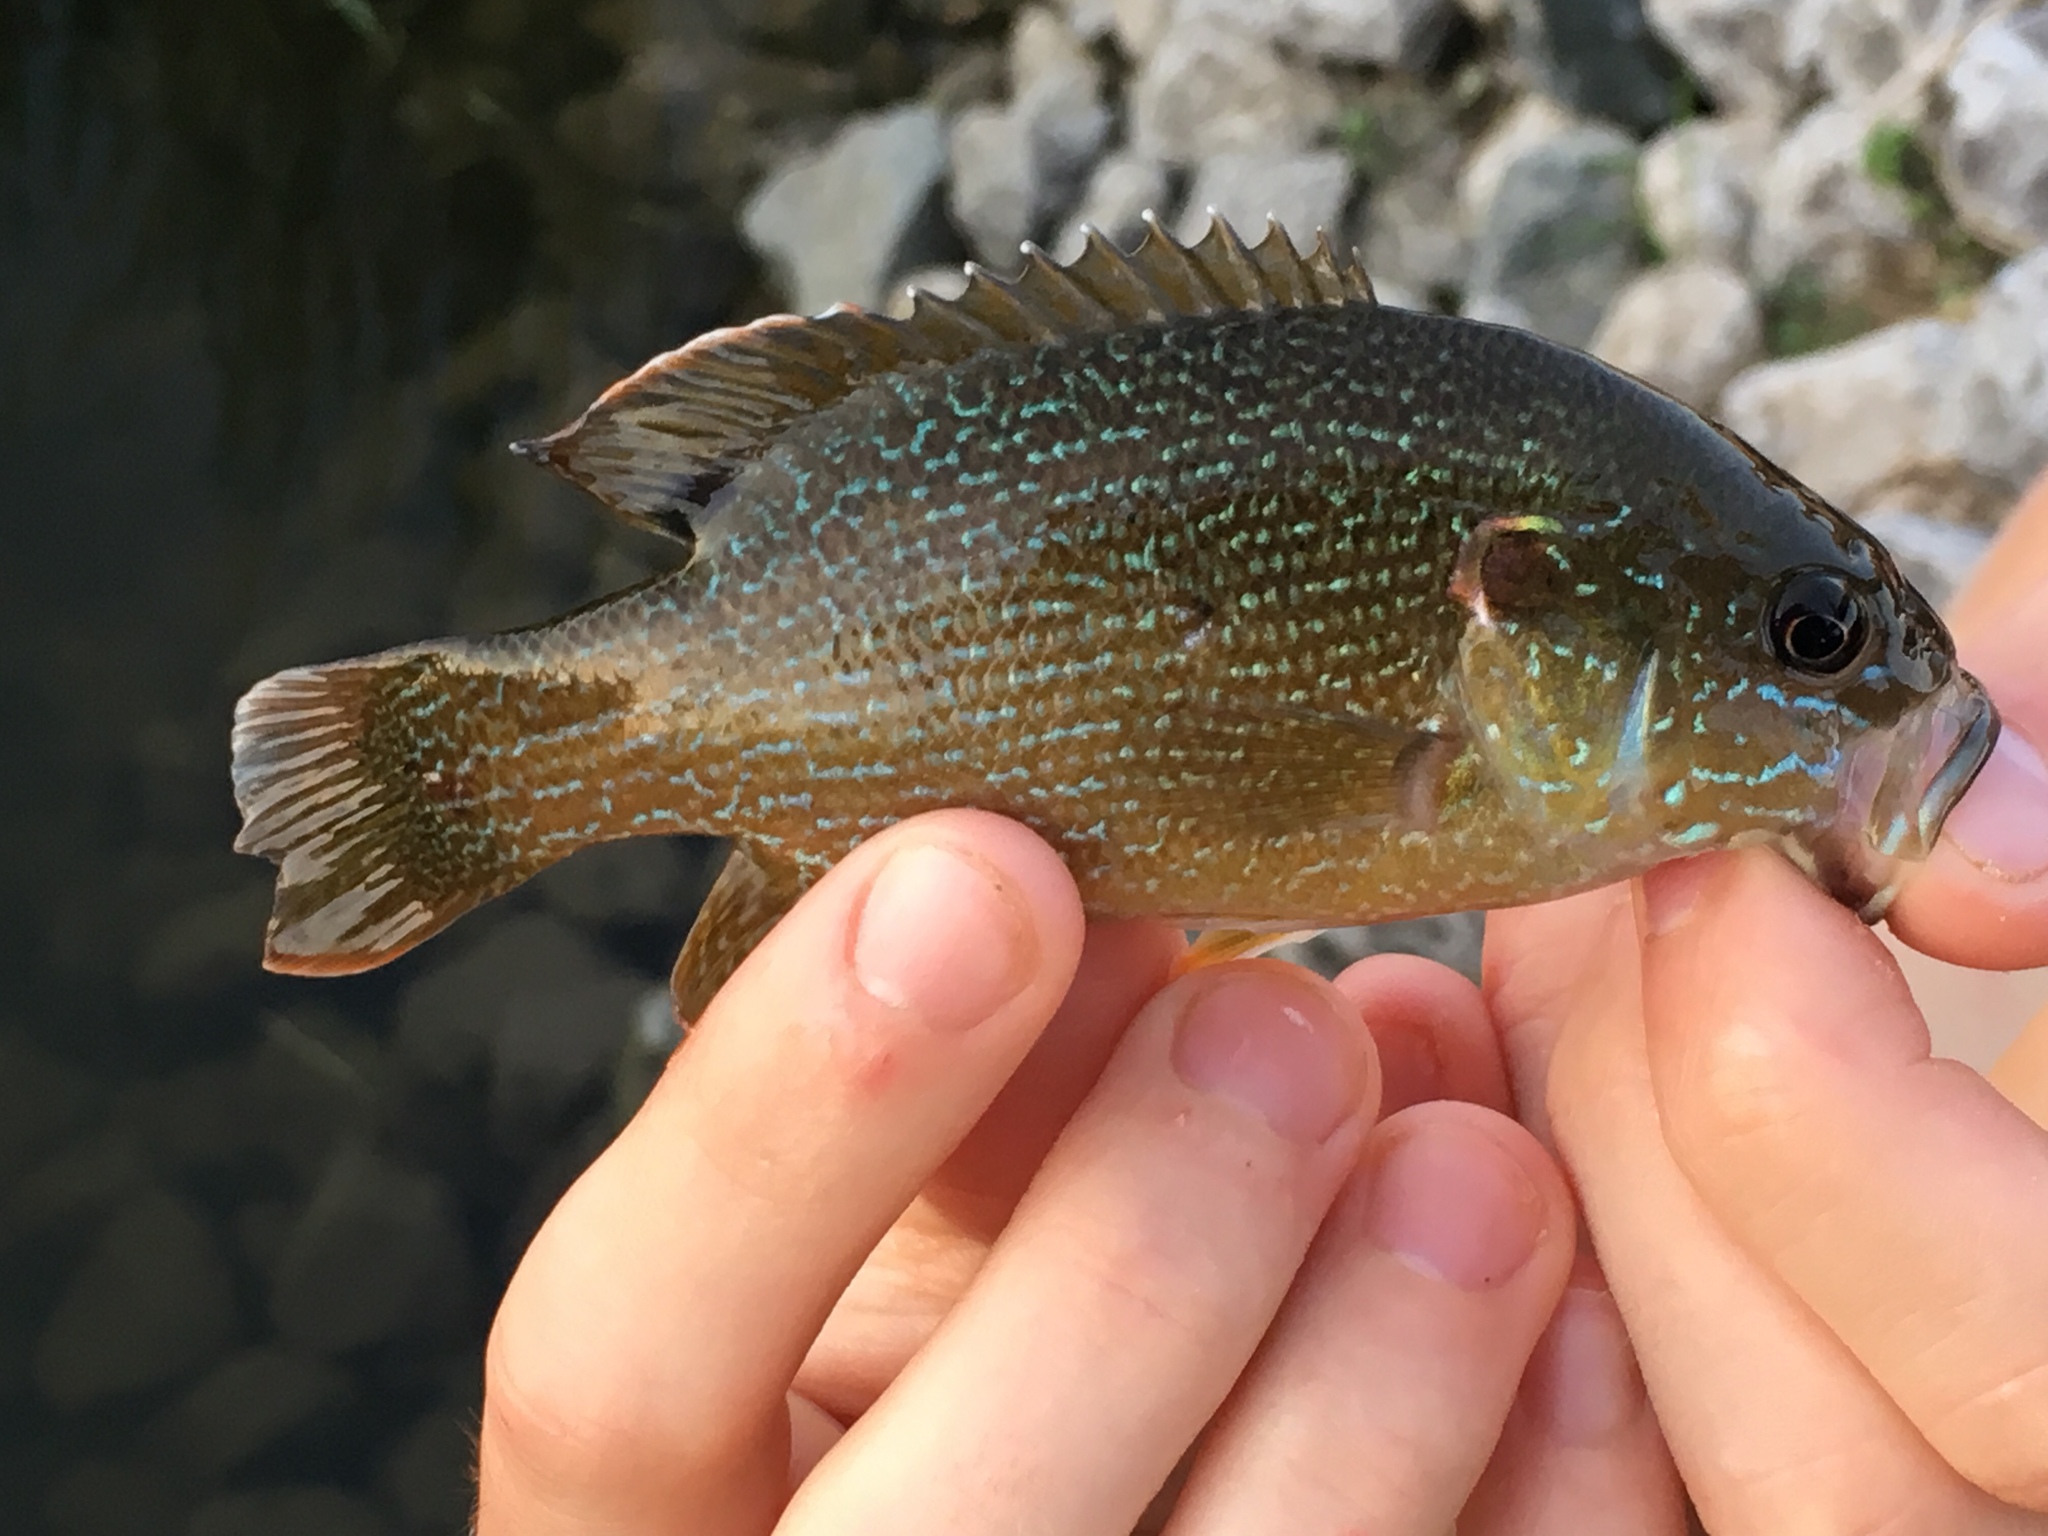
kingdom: Animalia
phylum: Chordata
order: Perciformes
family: Centrarchidae
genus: Lepomis
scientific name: Lepomis cyanellus
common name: Green sunfish
